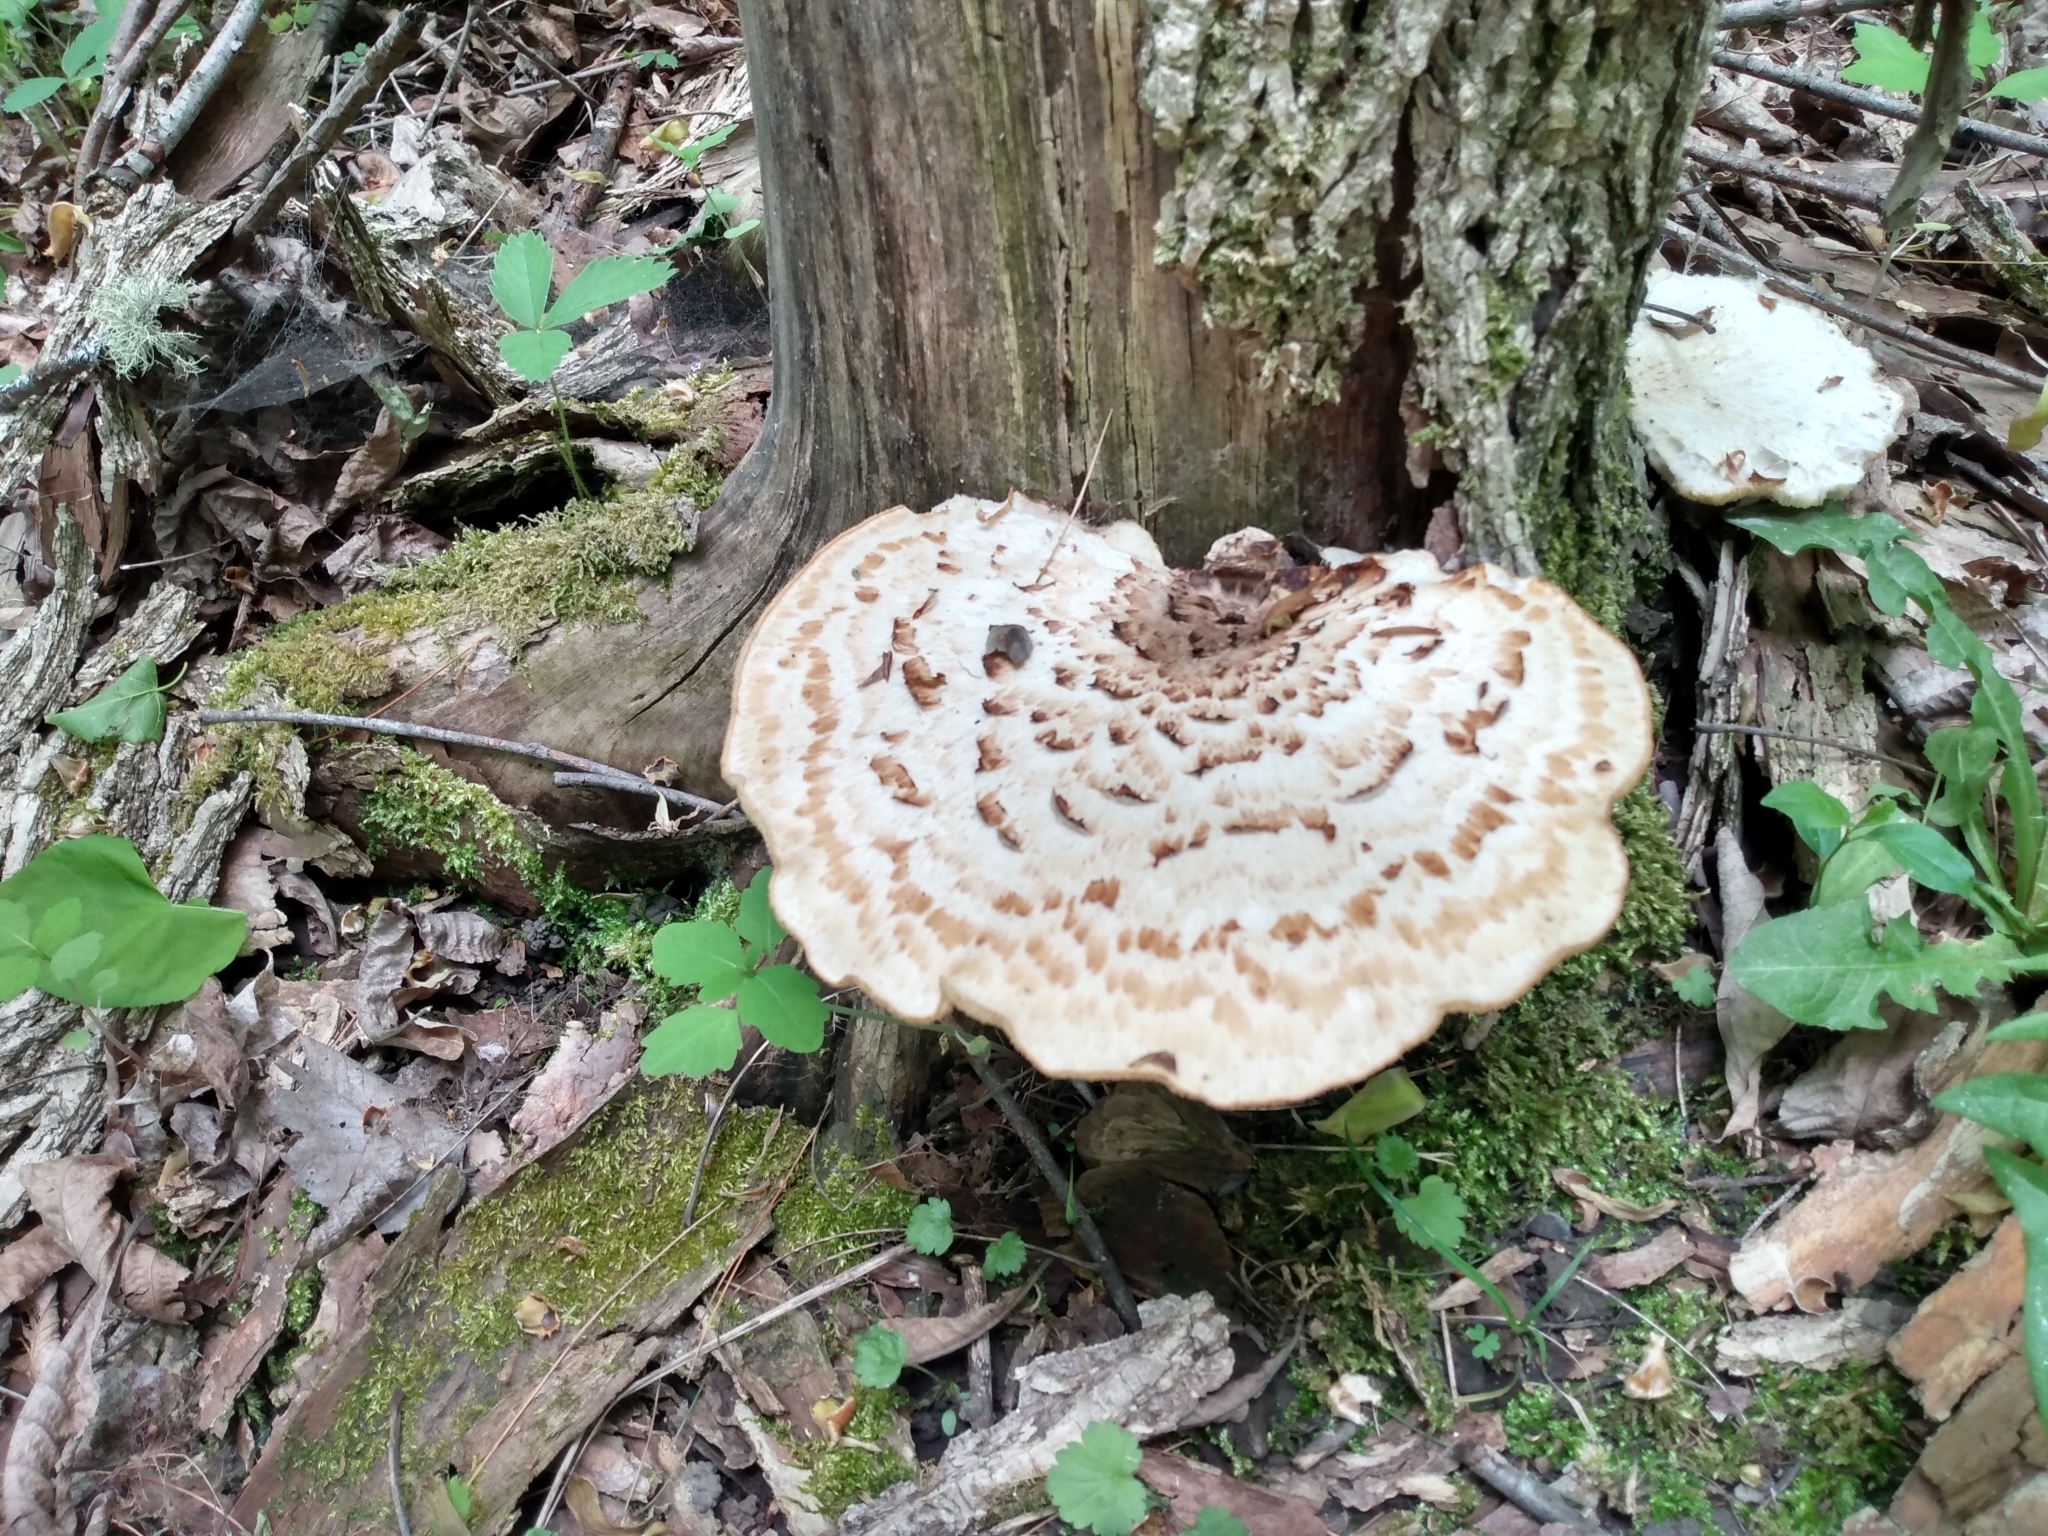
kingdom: Fungi
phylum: Basidiomycota
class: Agaricomycetes
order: Polyporales
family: Polyporaceae
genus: Cerioporus
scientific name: Cerioporus squamosus
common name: Dryad's saddle
